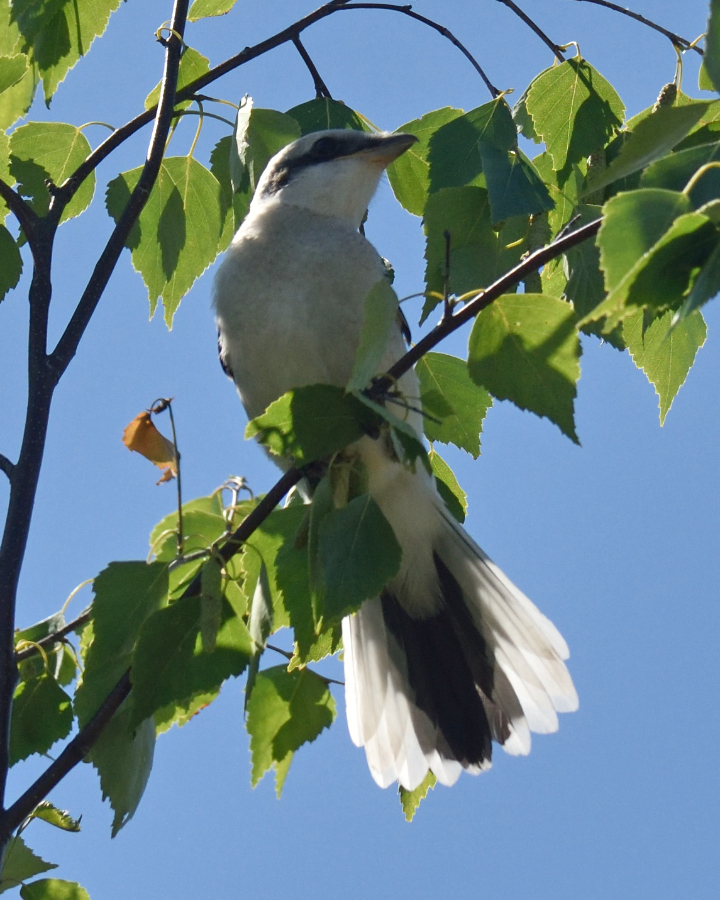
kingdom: Animalia
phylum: Chordata
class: Aves
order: Passeriformes
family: Laniidae
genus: Lanius
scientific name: Lanius excubitor
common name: Great grey shrike
